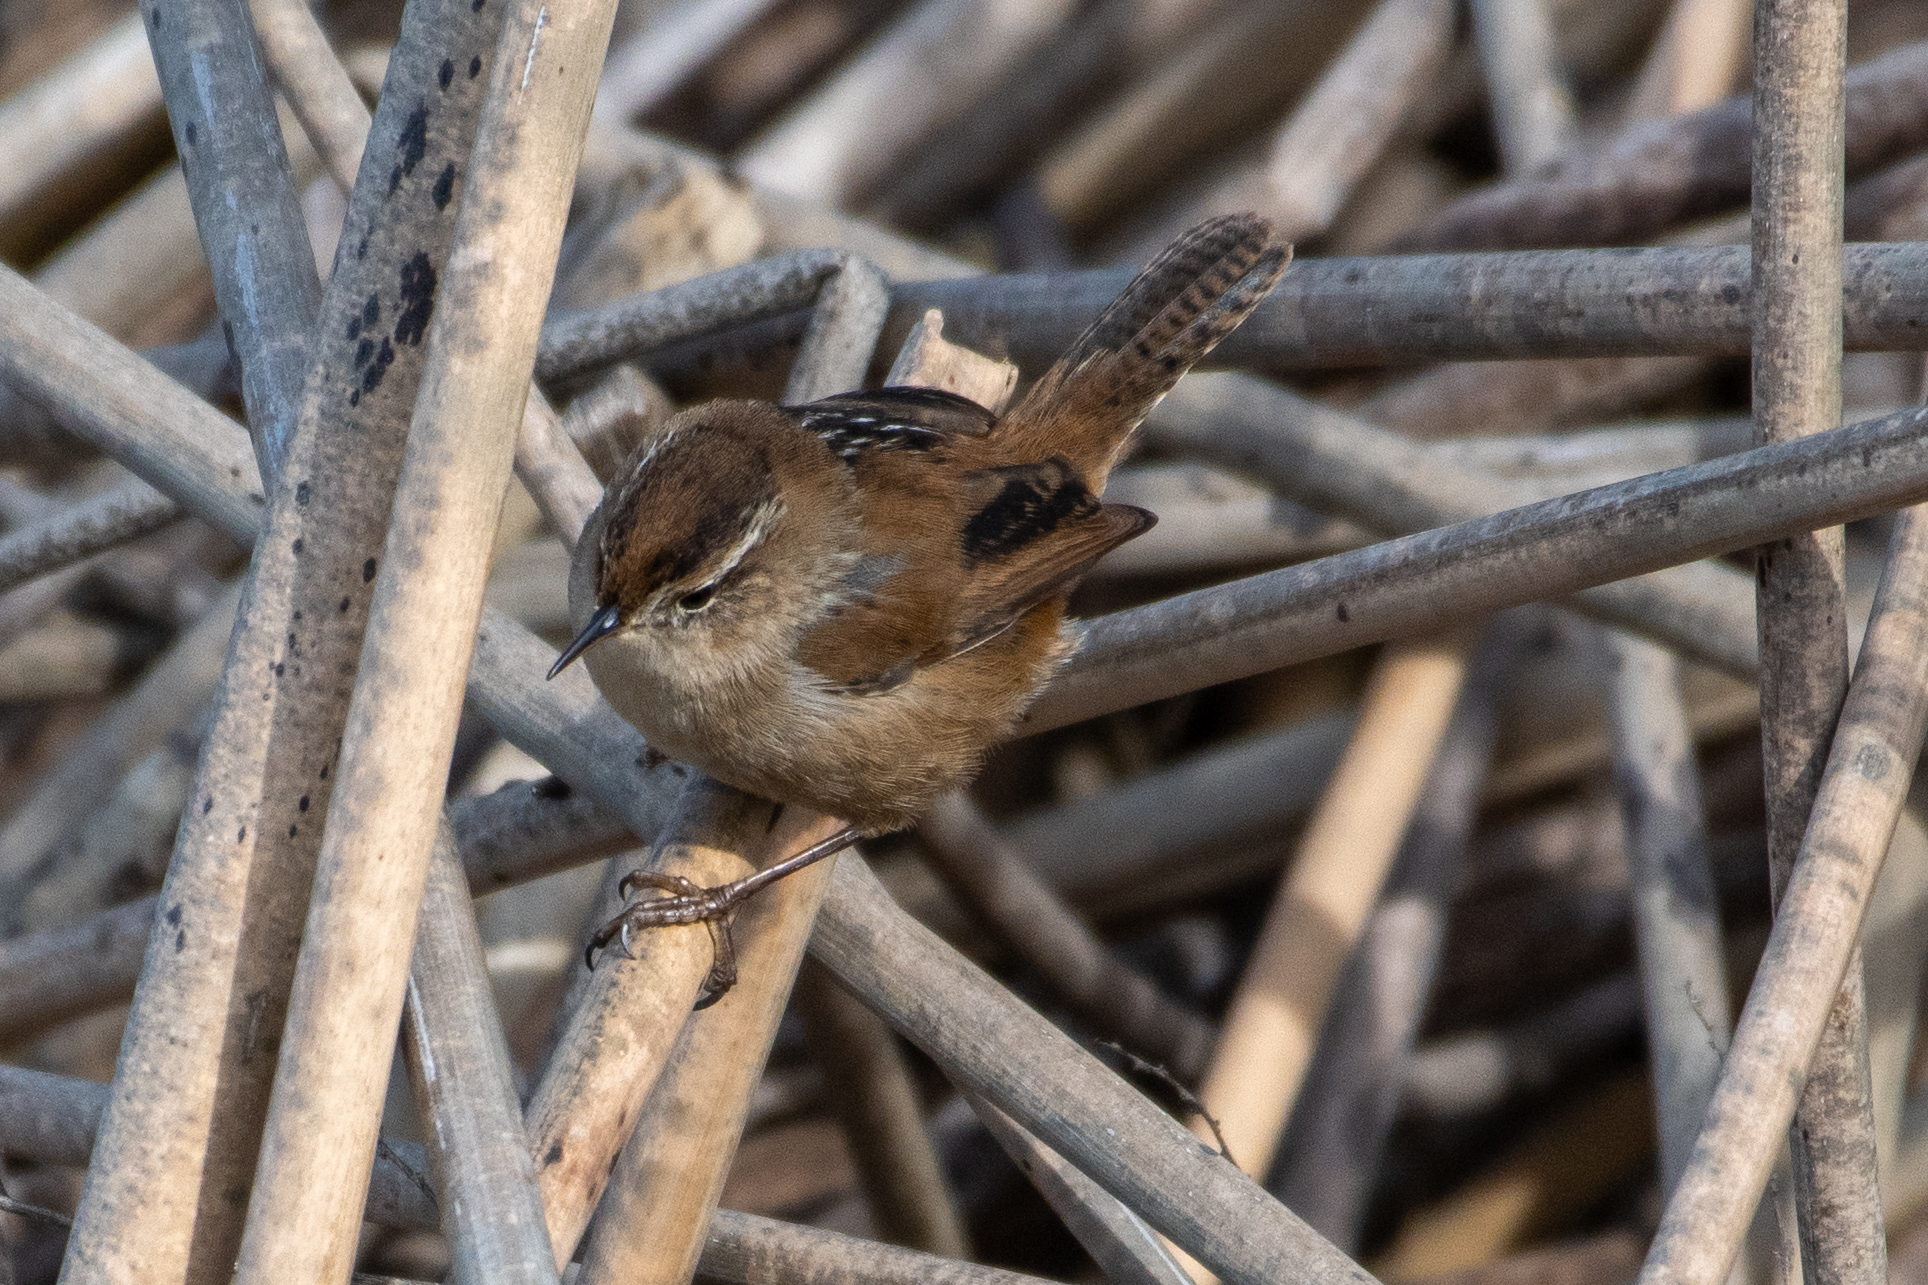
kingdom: Animalia
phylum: Chordata
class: Aves
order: Passeriformes
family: Troglodytidae
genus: Cistothorus
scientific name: Cistothorus palustris
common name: Marsh wren
